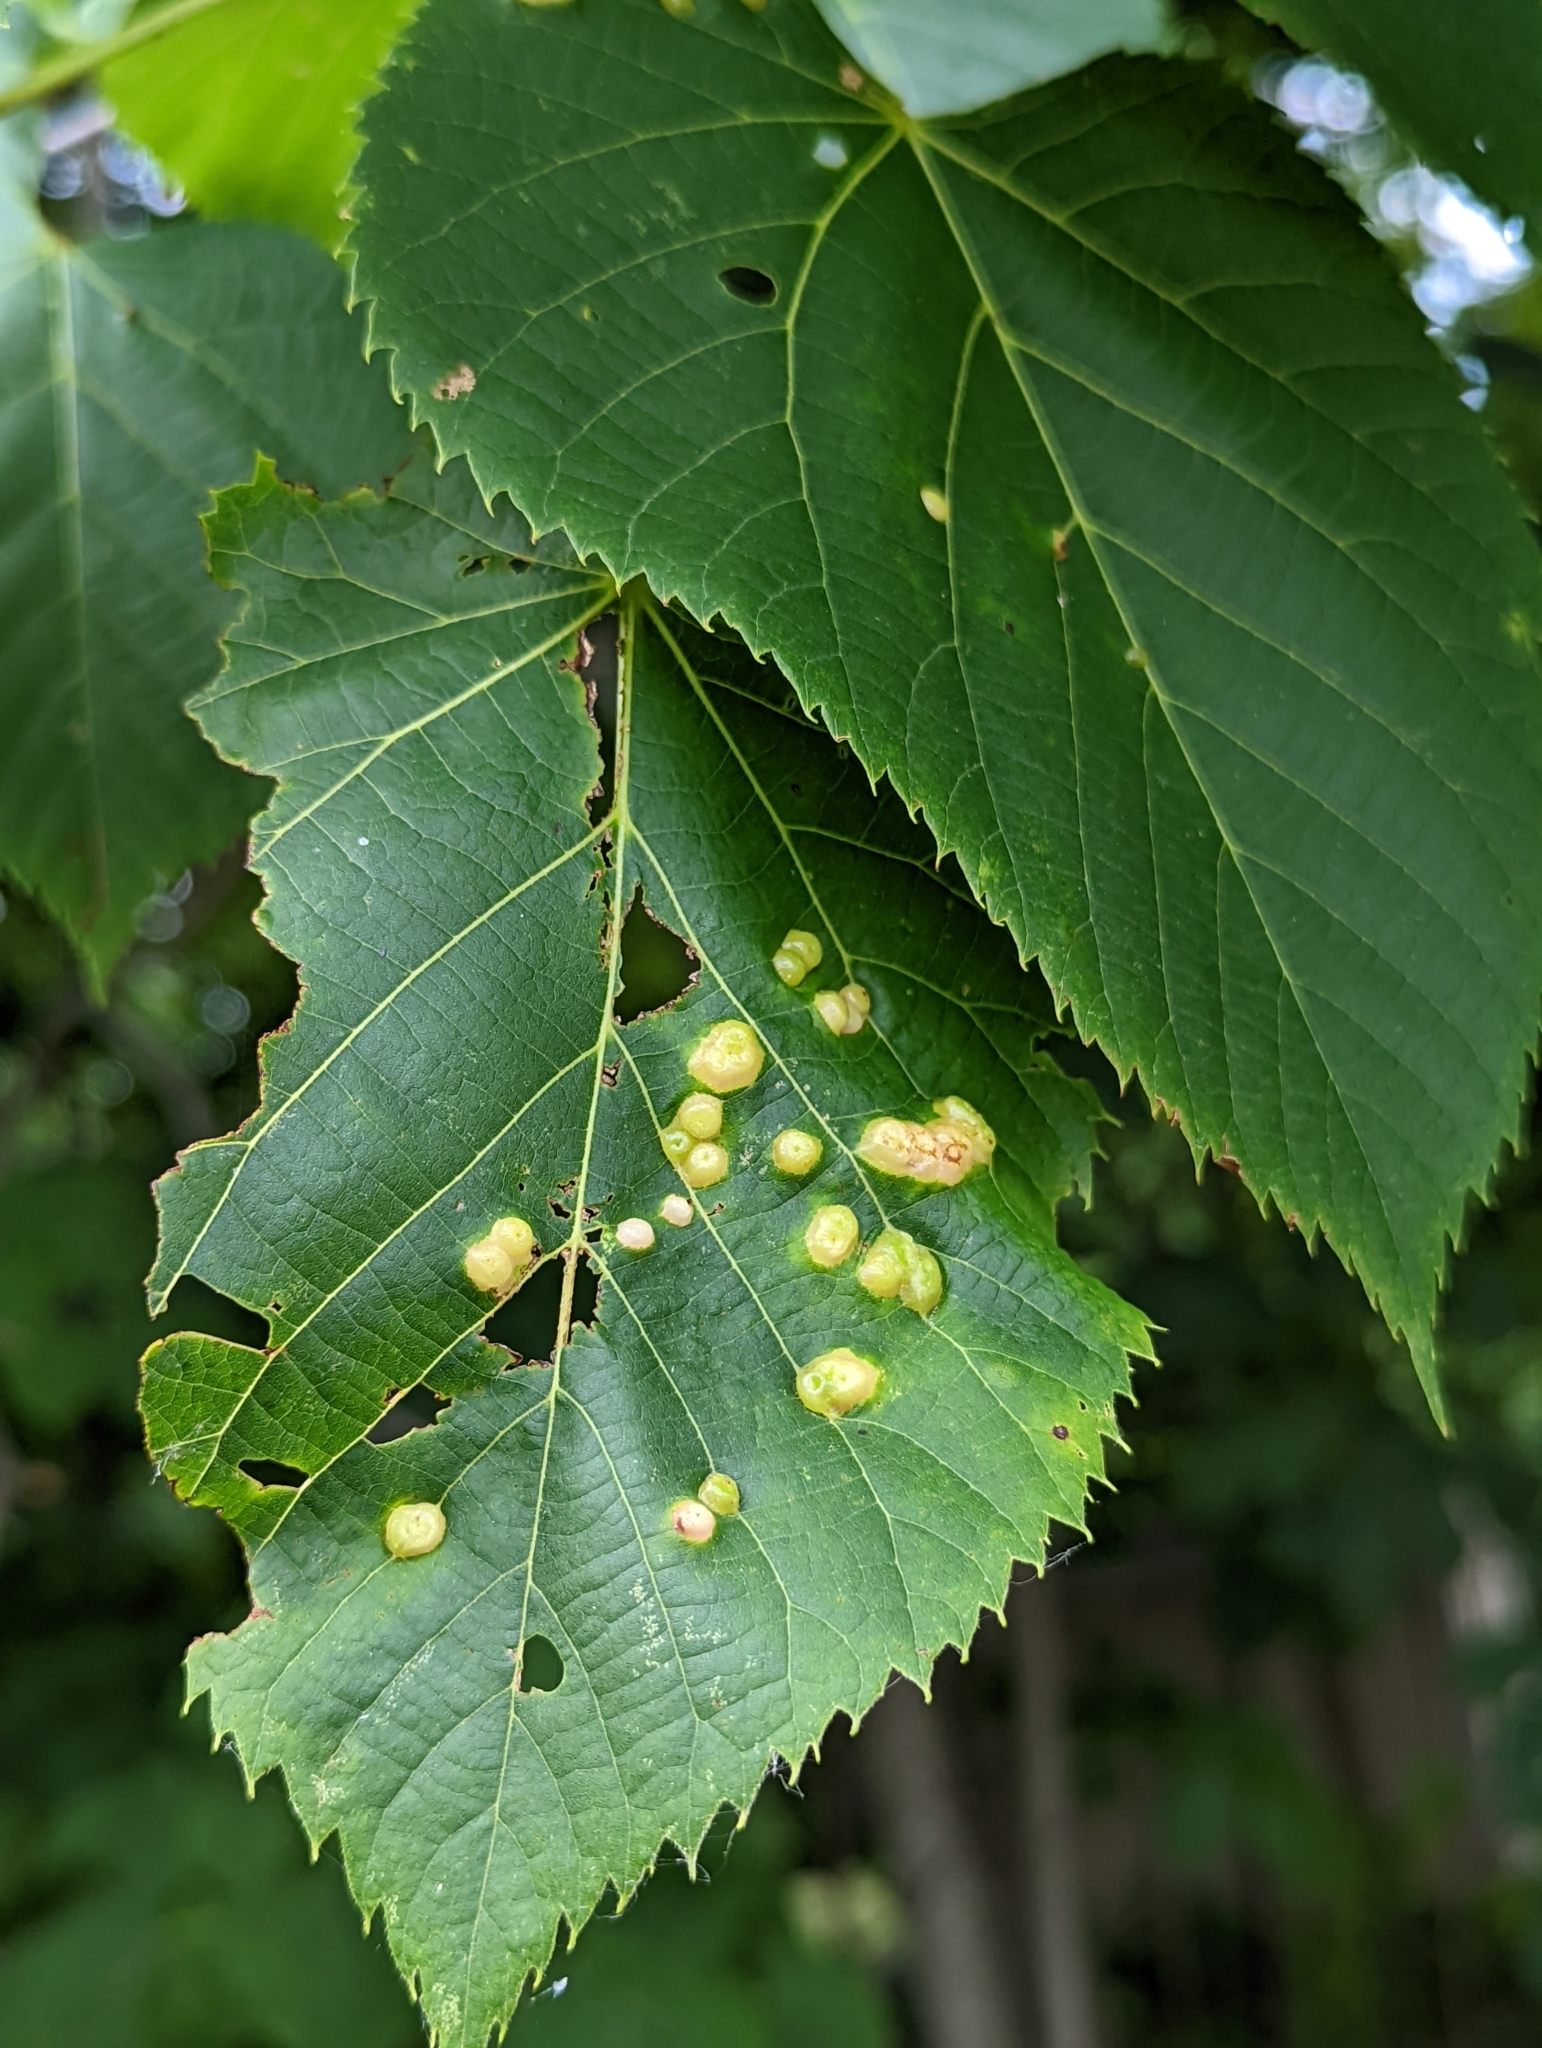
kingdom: Animalia
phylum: Arthropoda
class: Insecta
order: Diptera
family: Cecidomyiidae
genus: Contarinia
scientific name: Contarinia verrucicola
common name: Linden wart gall midge
